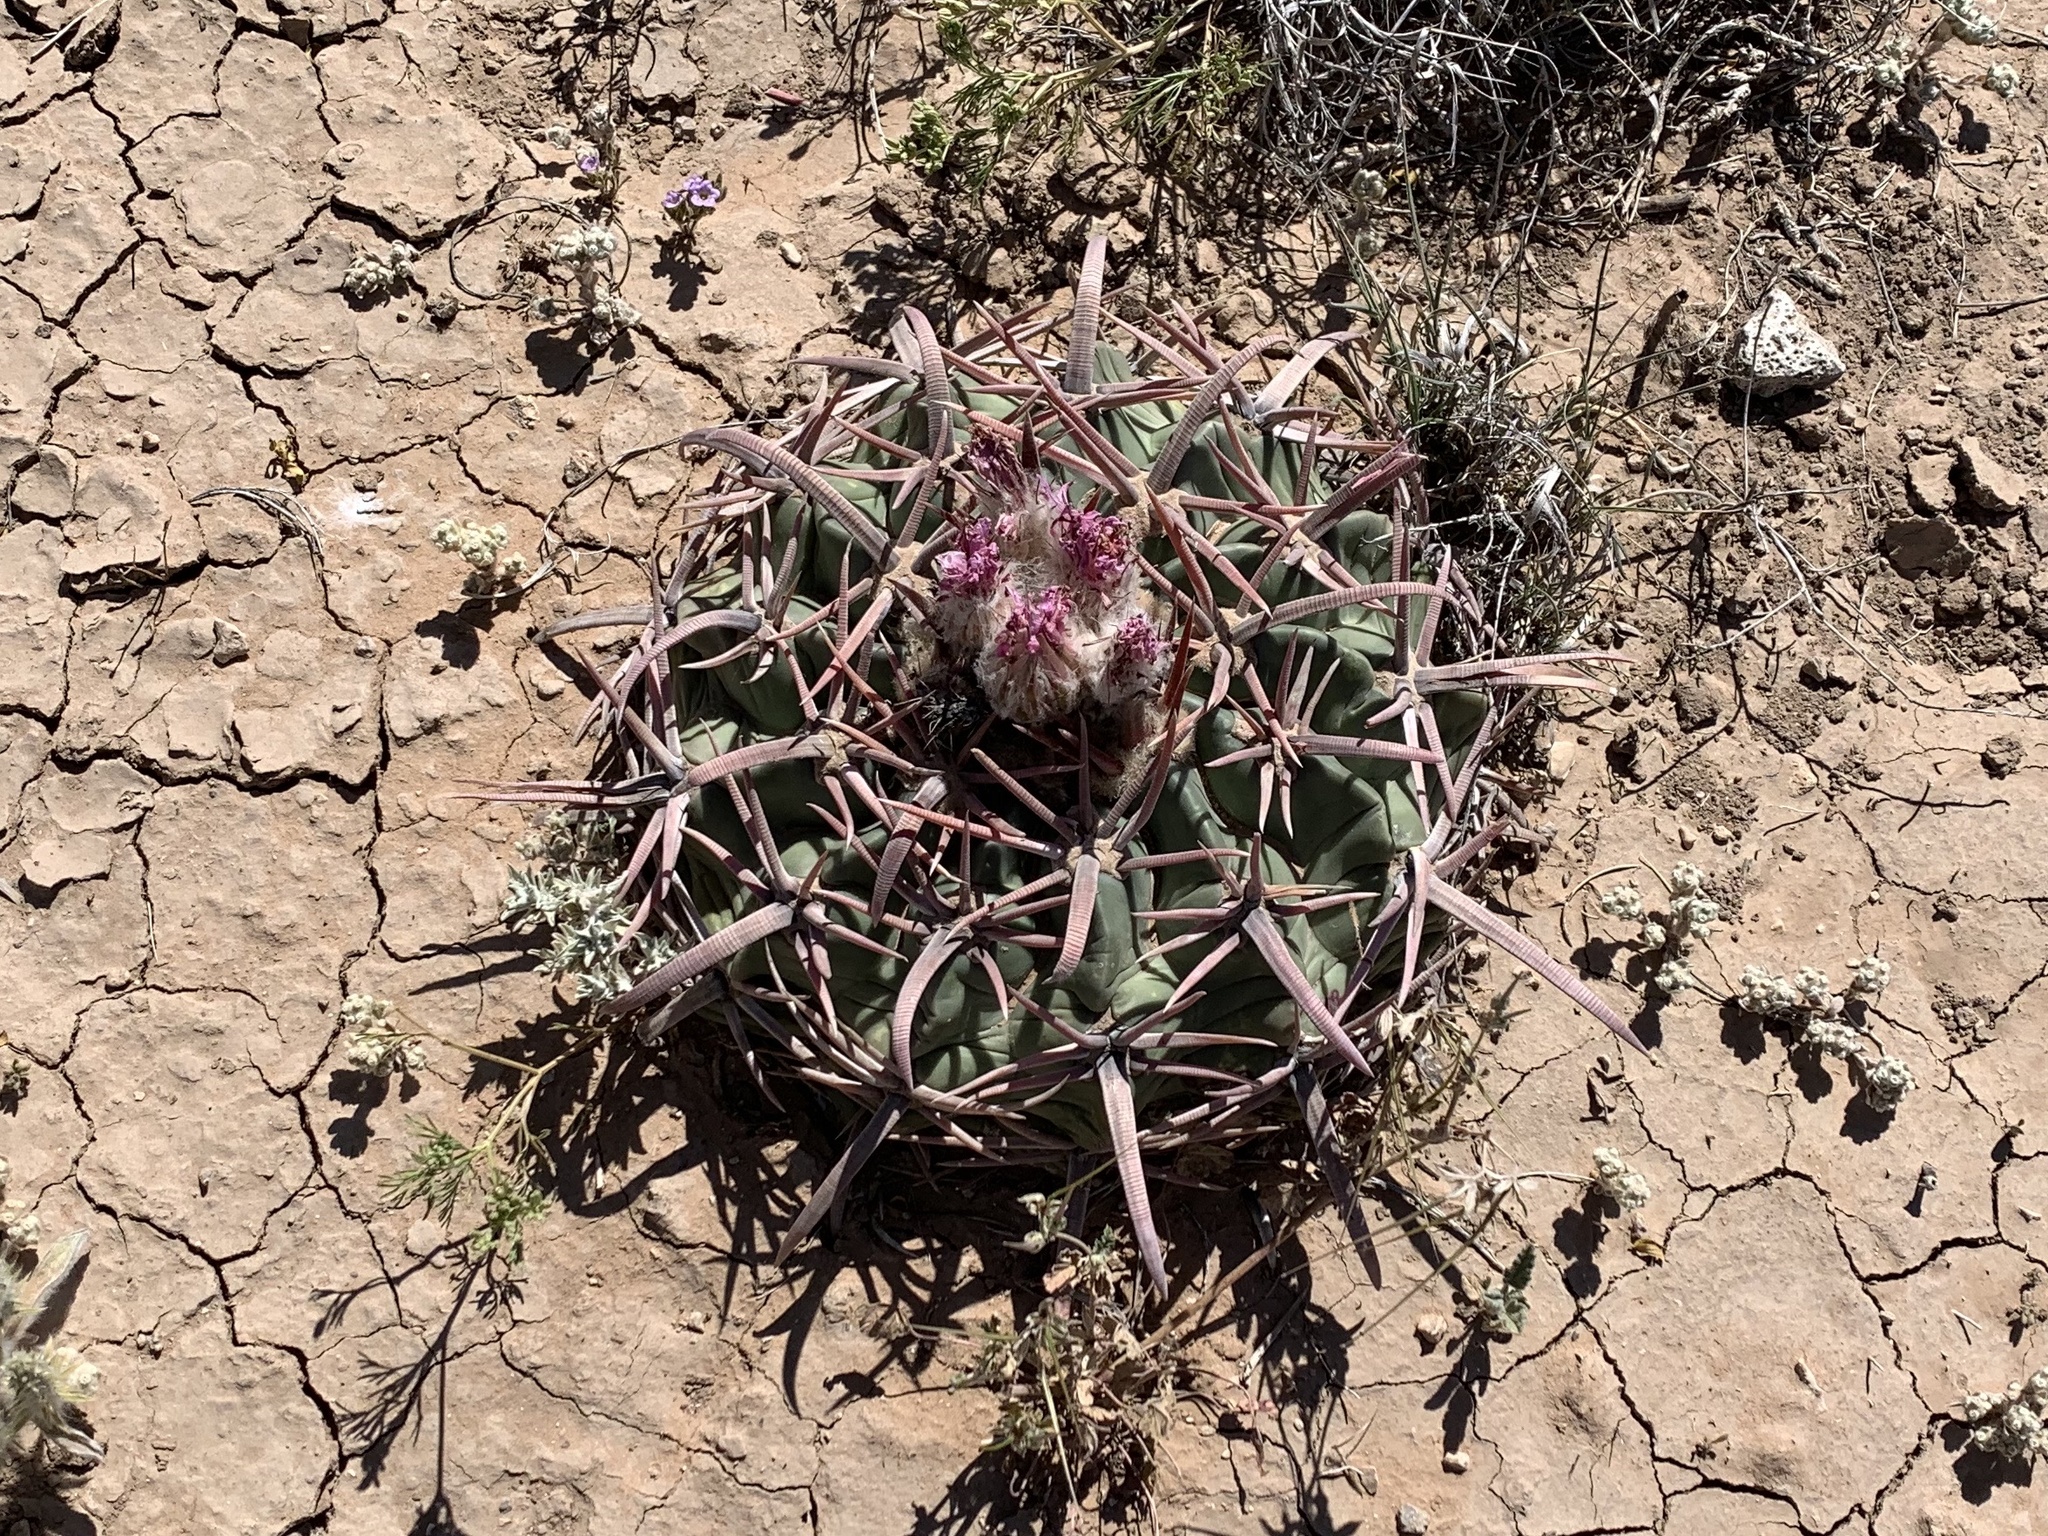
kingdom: Plantae
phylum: Tracheophyta
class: Magnoliopsida
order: Caryophyllales
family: Cactaceae
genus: Echinocactus
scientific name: Echinocactus texensis
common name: Devil's pincushion
